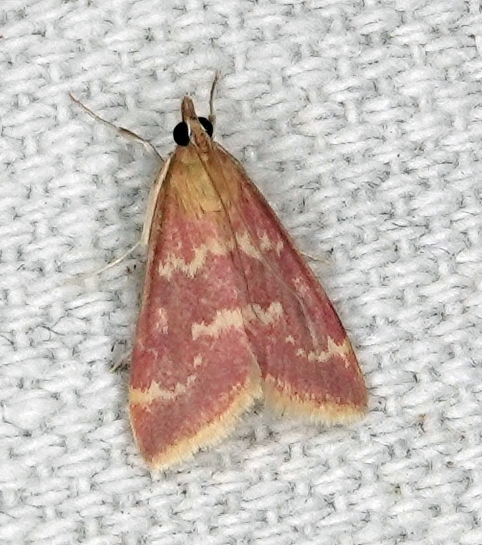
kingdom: Animalia
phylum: Arthropoda
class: Insecta
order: Lepidoptera
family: Crambidae
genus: Pyrausta
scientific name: Pyrausta signatalis
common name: Raspberry pyrausta moth
